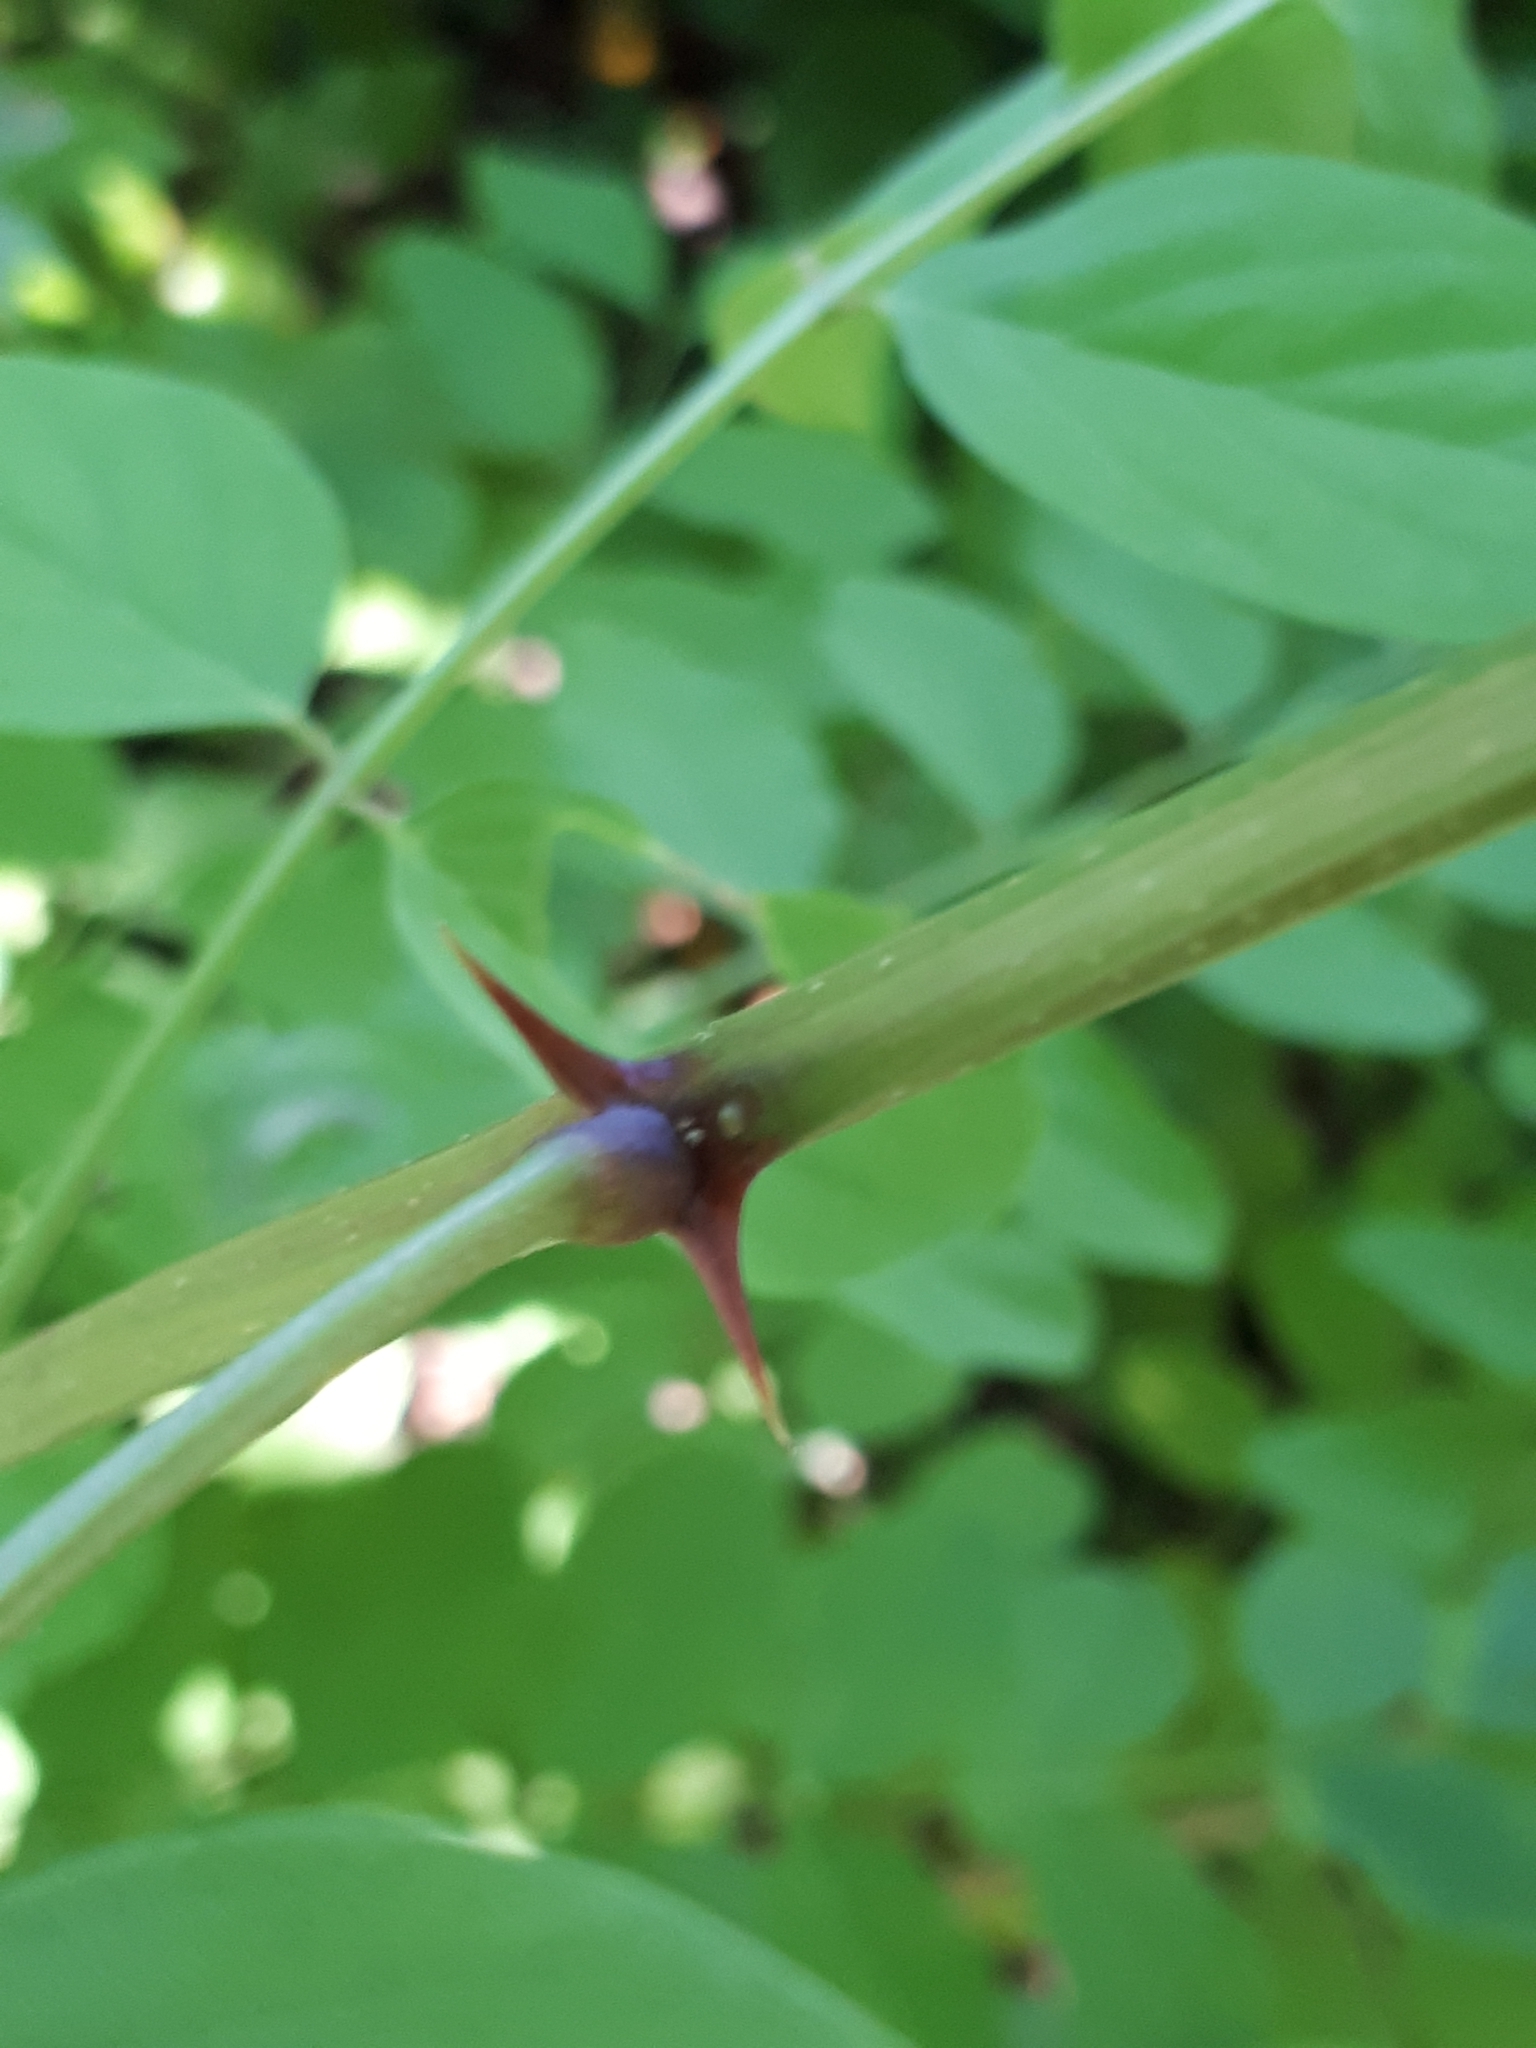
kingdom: Plantae
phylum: Tracheophyta
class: Magnoliopsida
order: Fabales
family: Fabaceae
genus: Robinia
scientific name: Robinia pseudoacacia
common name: Black locust
